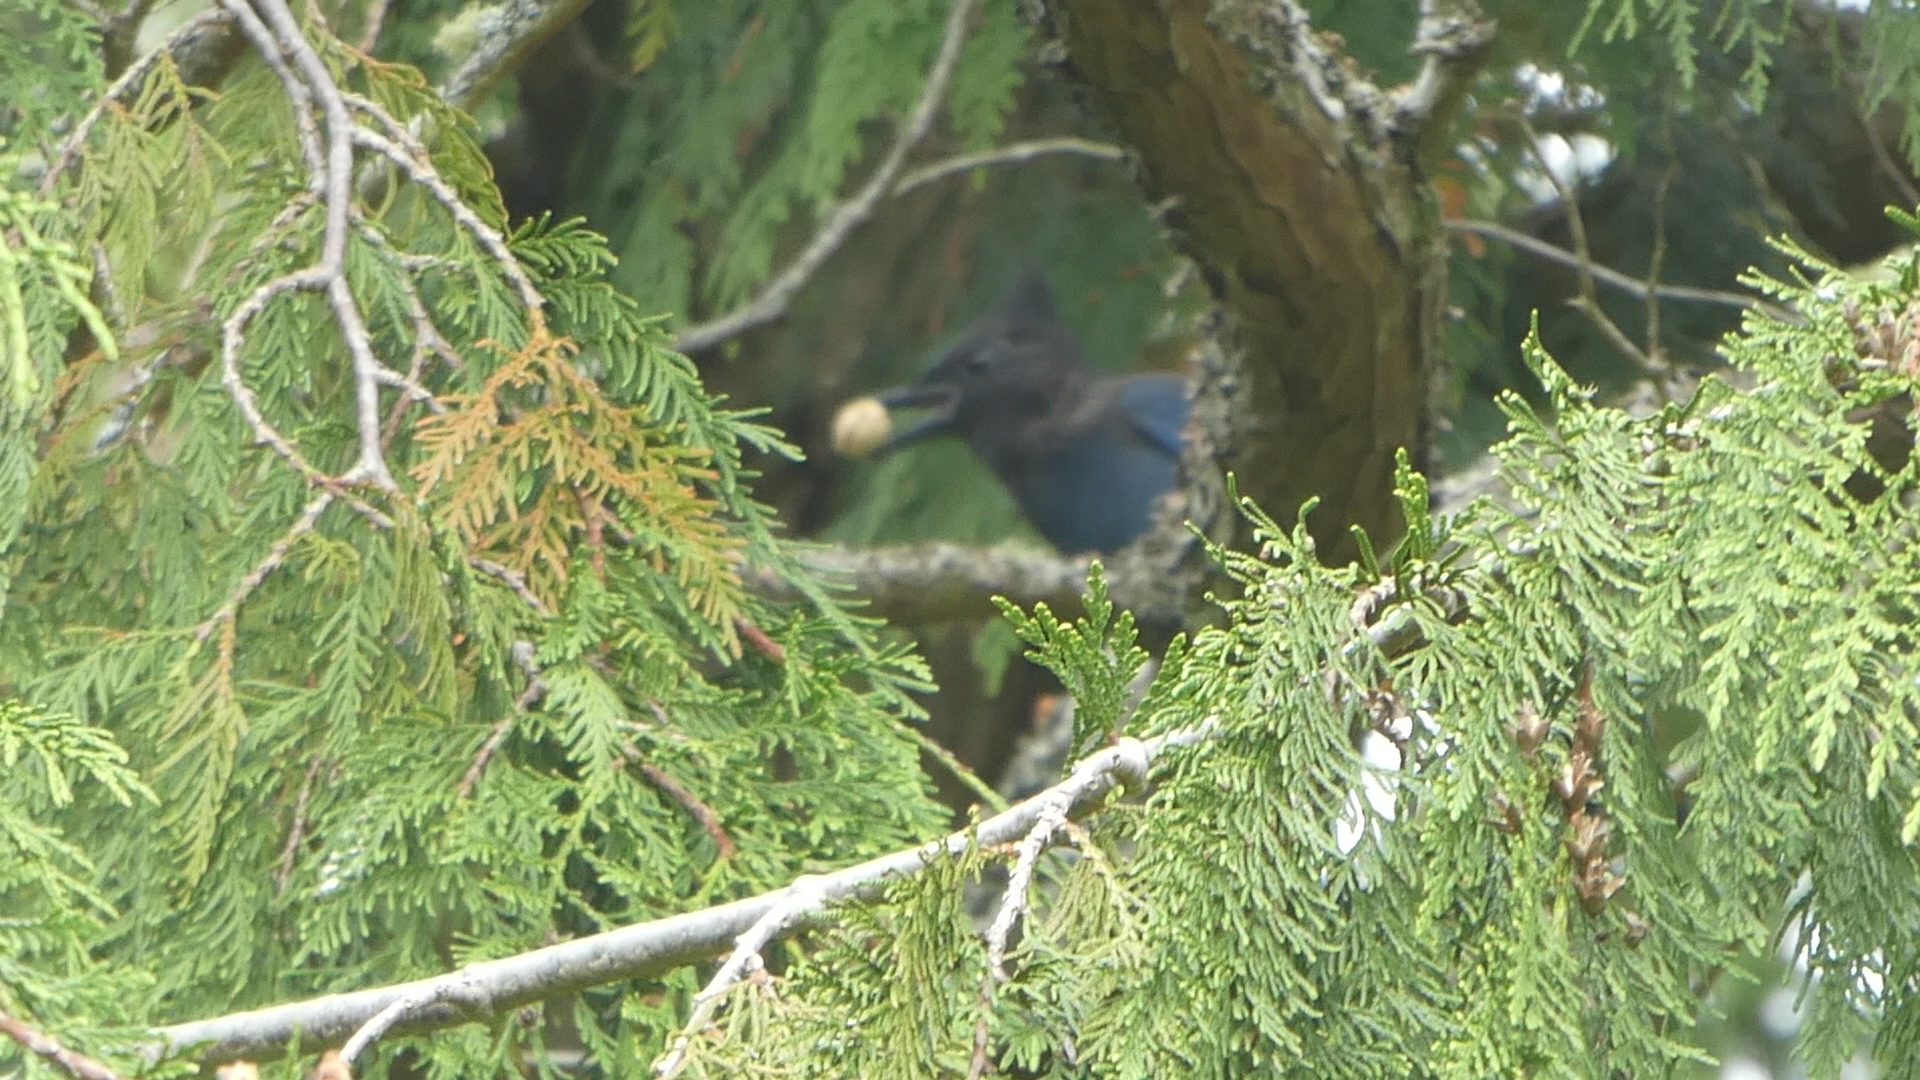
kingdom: Animalia
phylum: Chordata
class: Aves
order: Passeriformes
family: Corvidae
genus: Cyanocitta
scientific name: Cyanocitta stelleri
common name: Steller's jay
